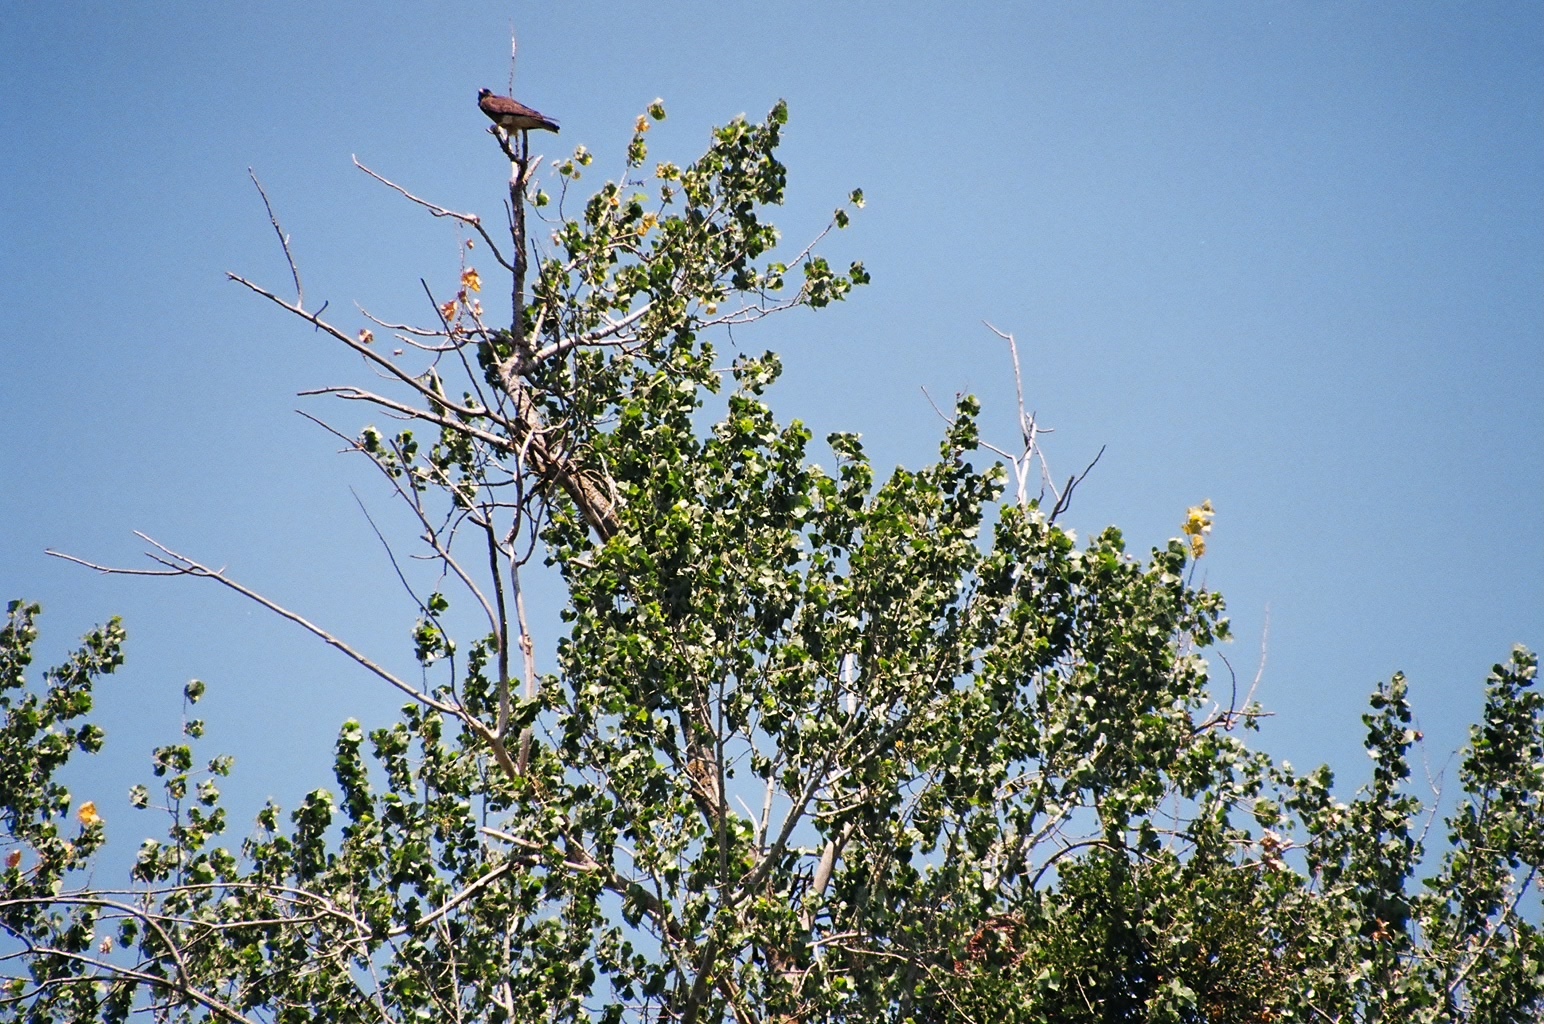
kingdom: Animalia
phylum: Chordata
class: Aves
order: Accipitriformes
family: Accipitridae
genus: Buteo
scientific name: Buteo swainsoni
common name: Swainson's hawk
